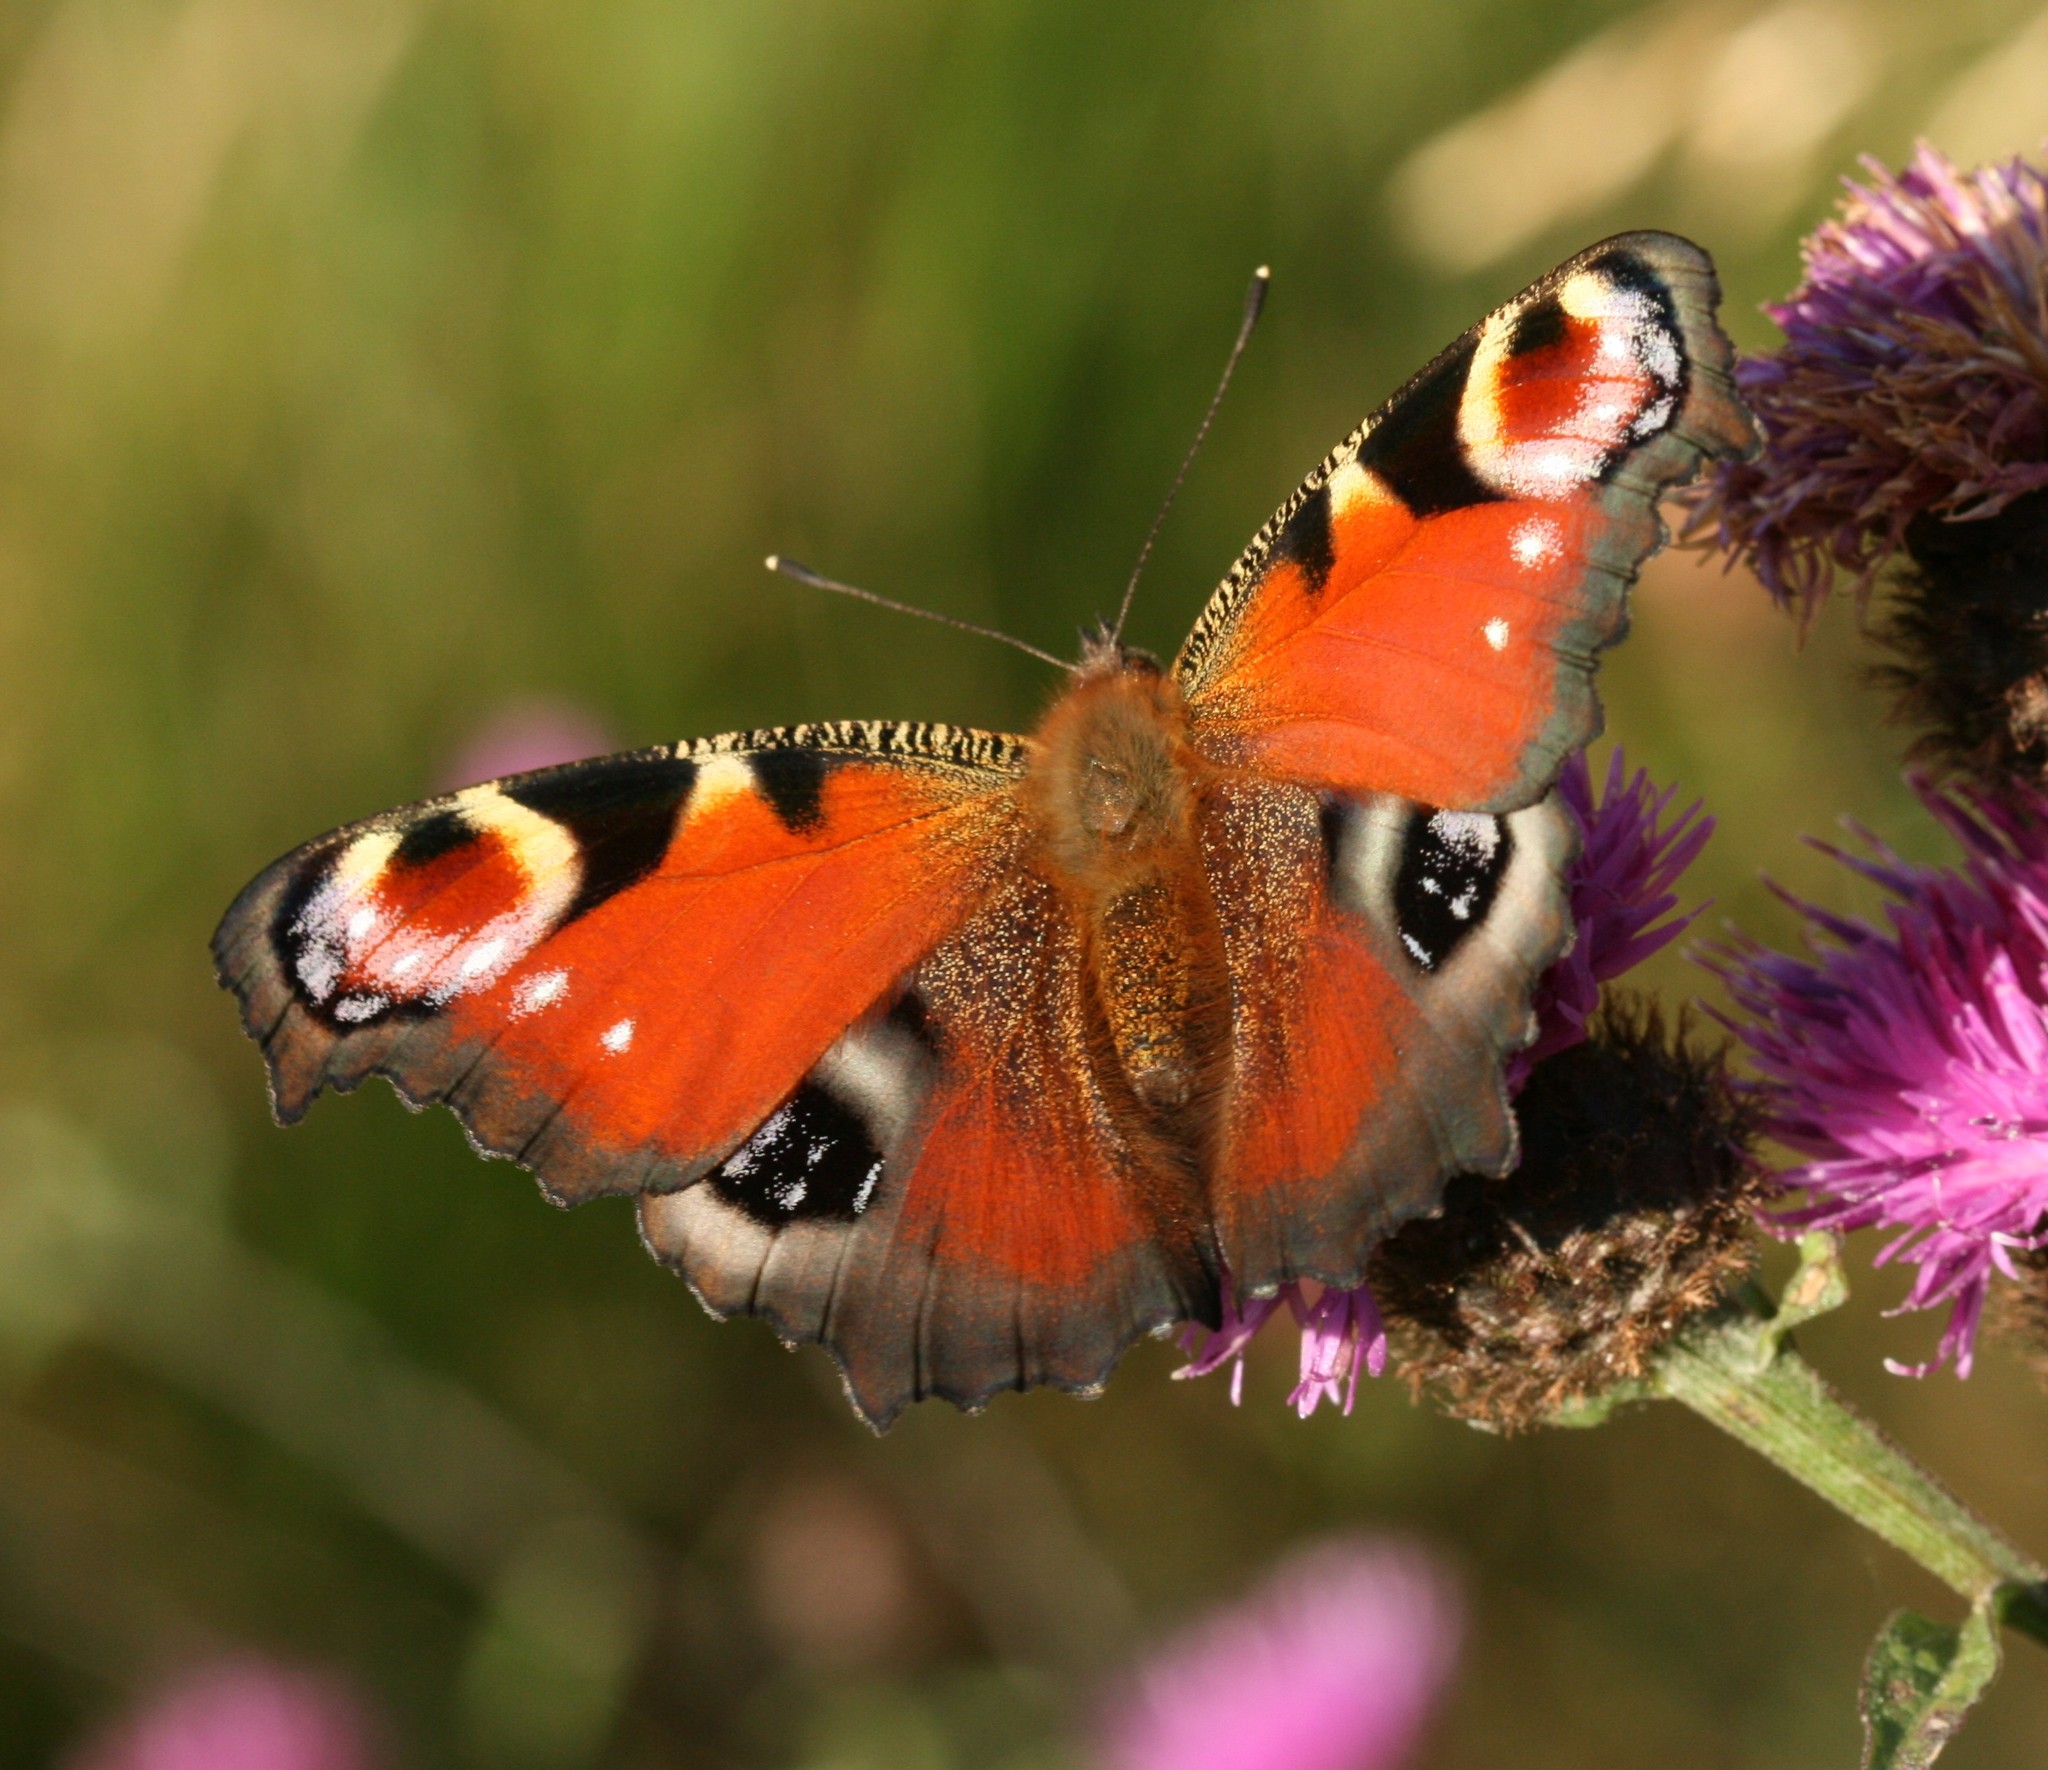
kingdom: Animalia
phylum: Arthropoda
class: Insecta
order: Lepidoptera
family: Nymphalidae
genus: Aglais
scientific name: Aglais io
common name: Peacock
